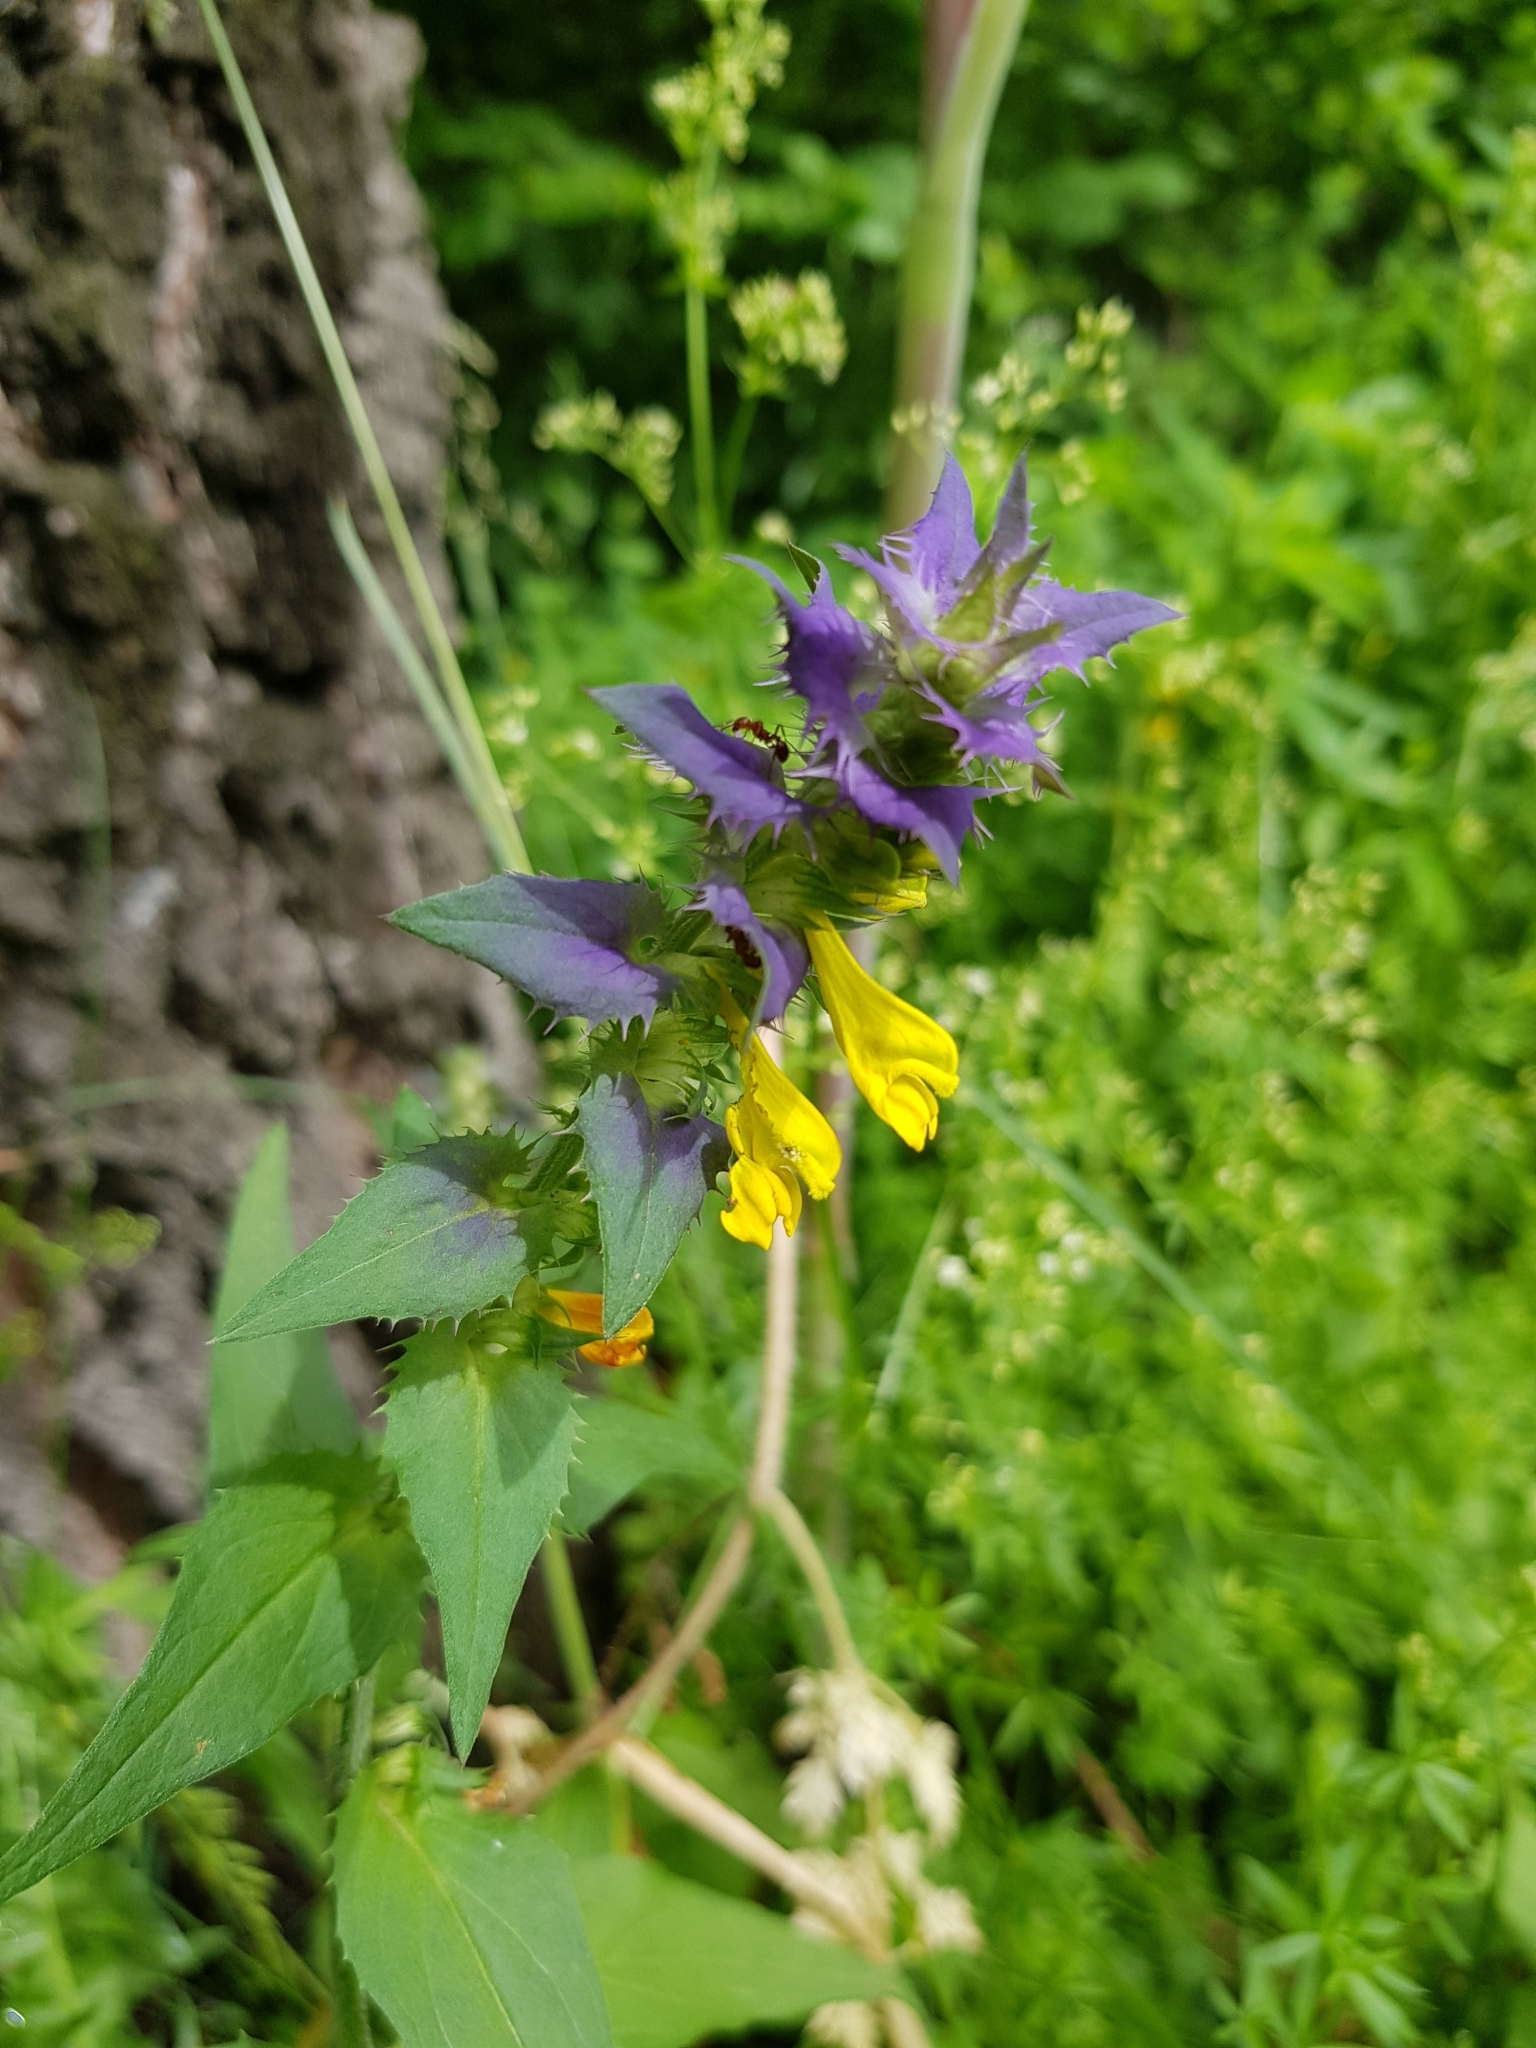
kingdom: Plantae
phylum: Tracheophyta
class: Magnoliopsida
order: Lamiales
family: Orobanchaceae
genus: Melampyrum
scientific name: Melampyrum nemorosum
